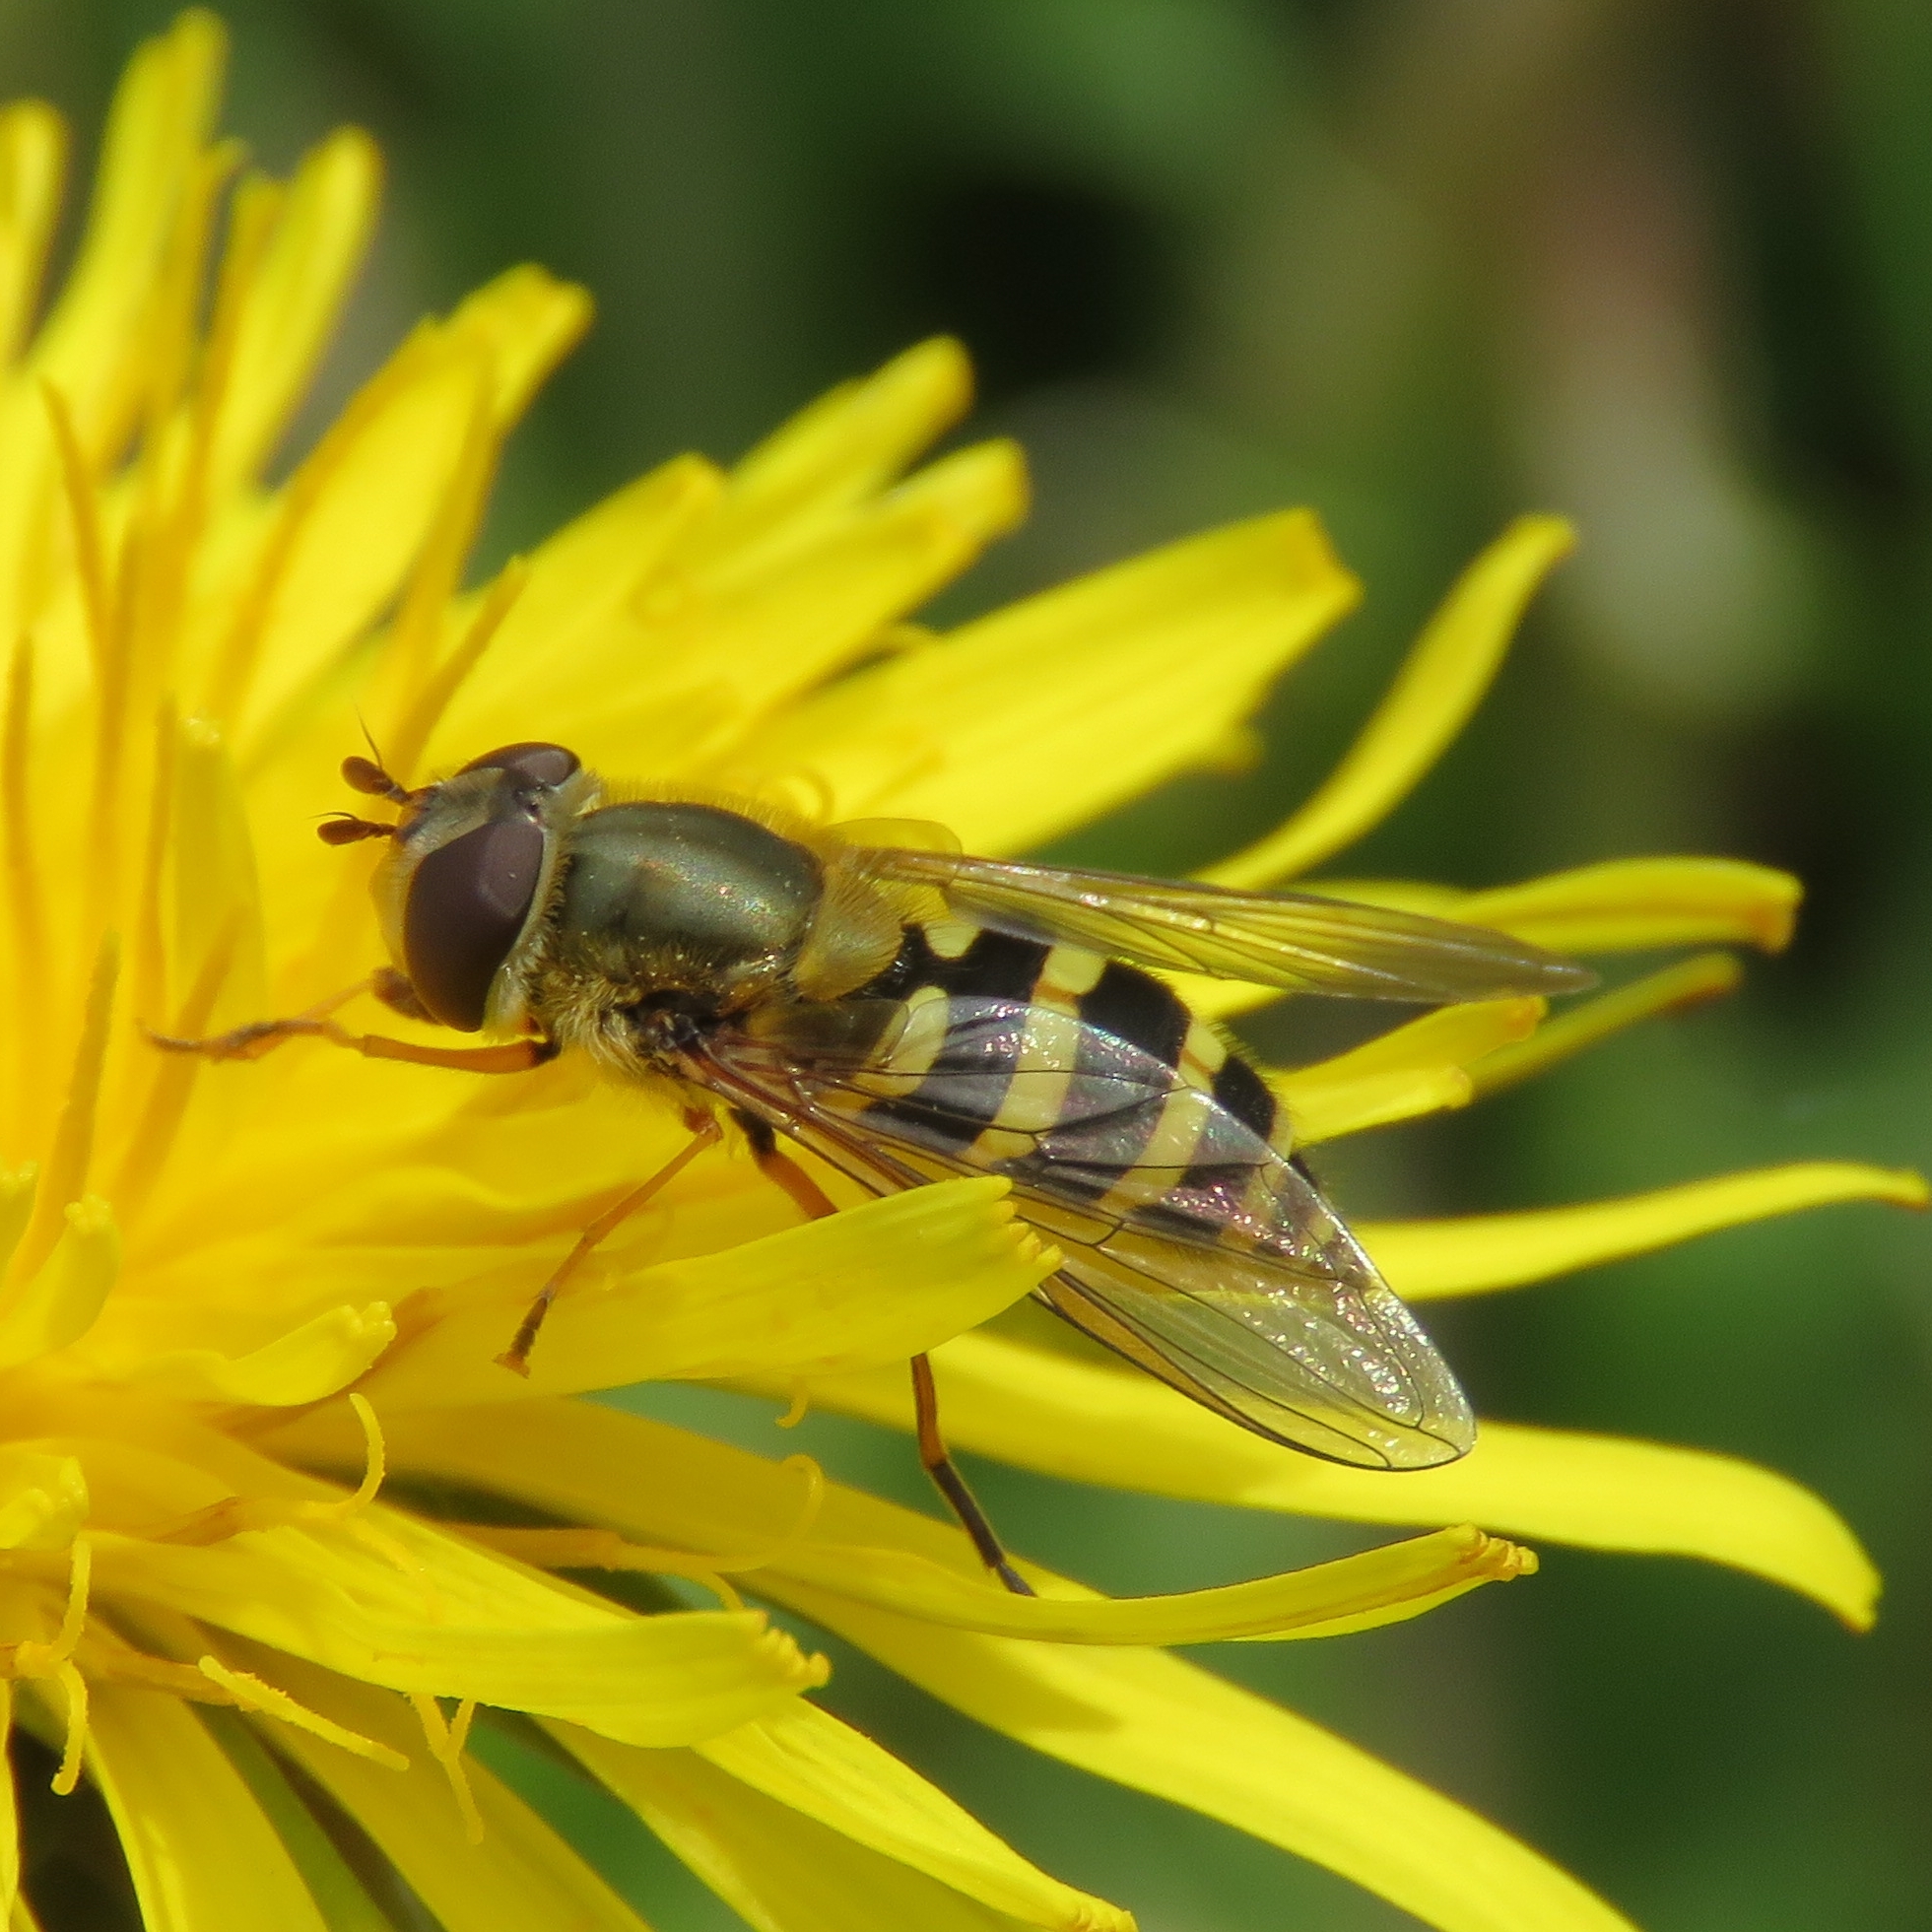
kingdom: Animalia
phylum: Arthropoda
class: Insecta
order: Diptera
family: Syrphidae
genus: Syrphus
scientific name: Syrphus ribesii
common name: Common flower fly
